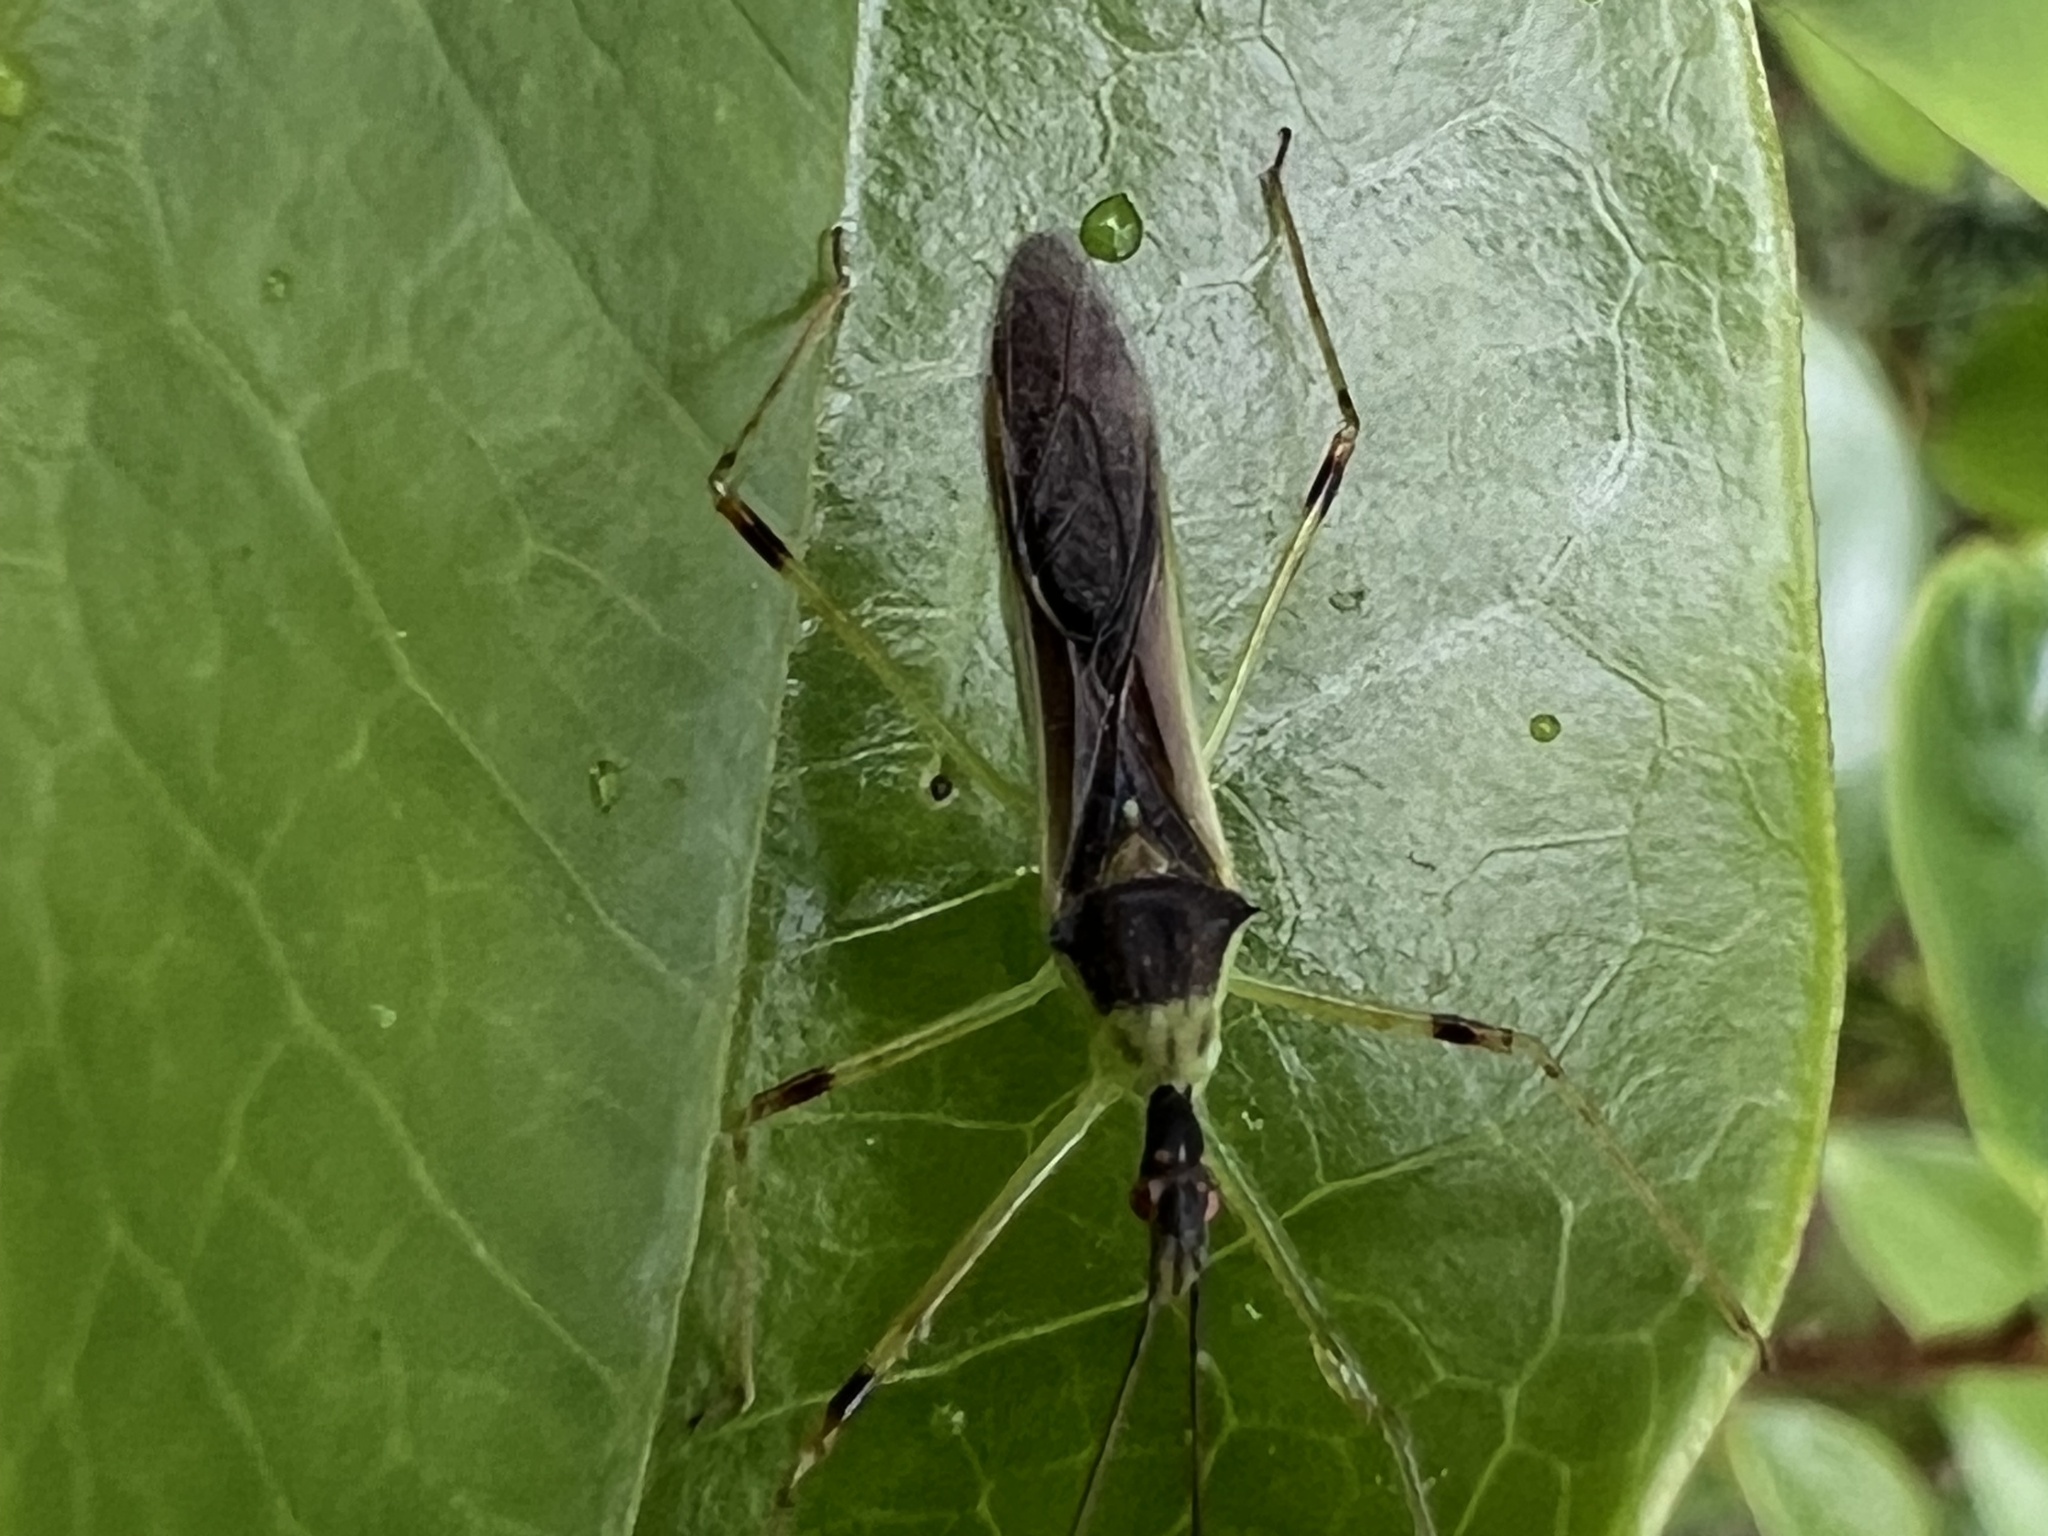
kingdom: Animalia
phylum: Arthropoda
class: Insecta
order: Hemiptera
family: Reduviidae
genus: Zelus
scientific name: Zelus luridus
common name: Pale green assassin bug
